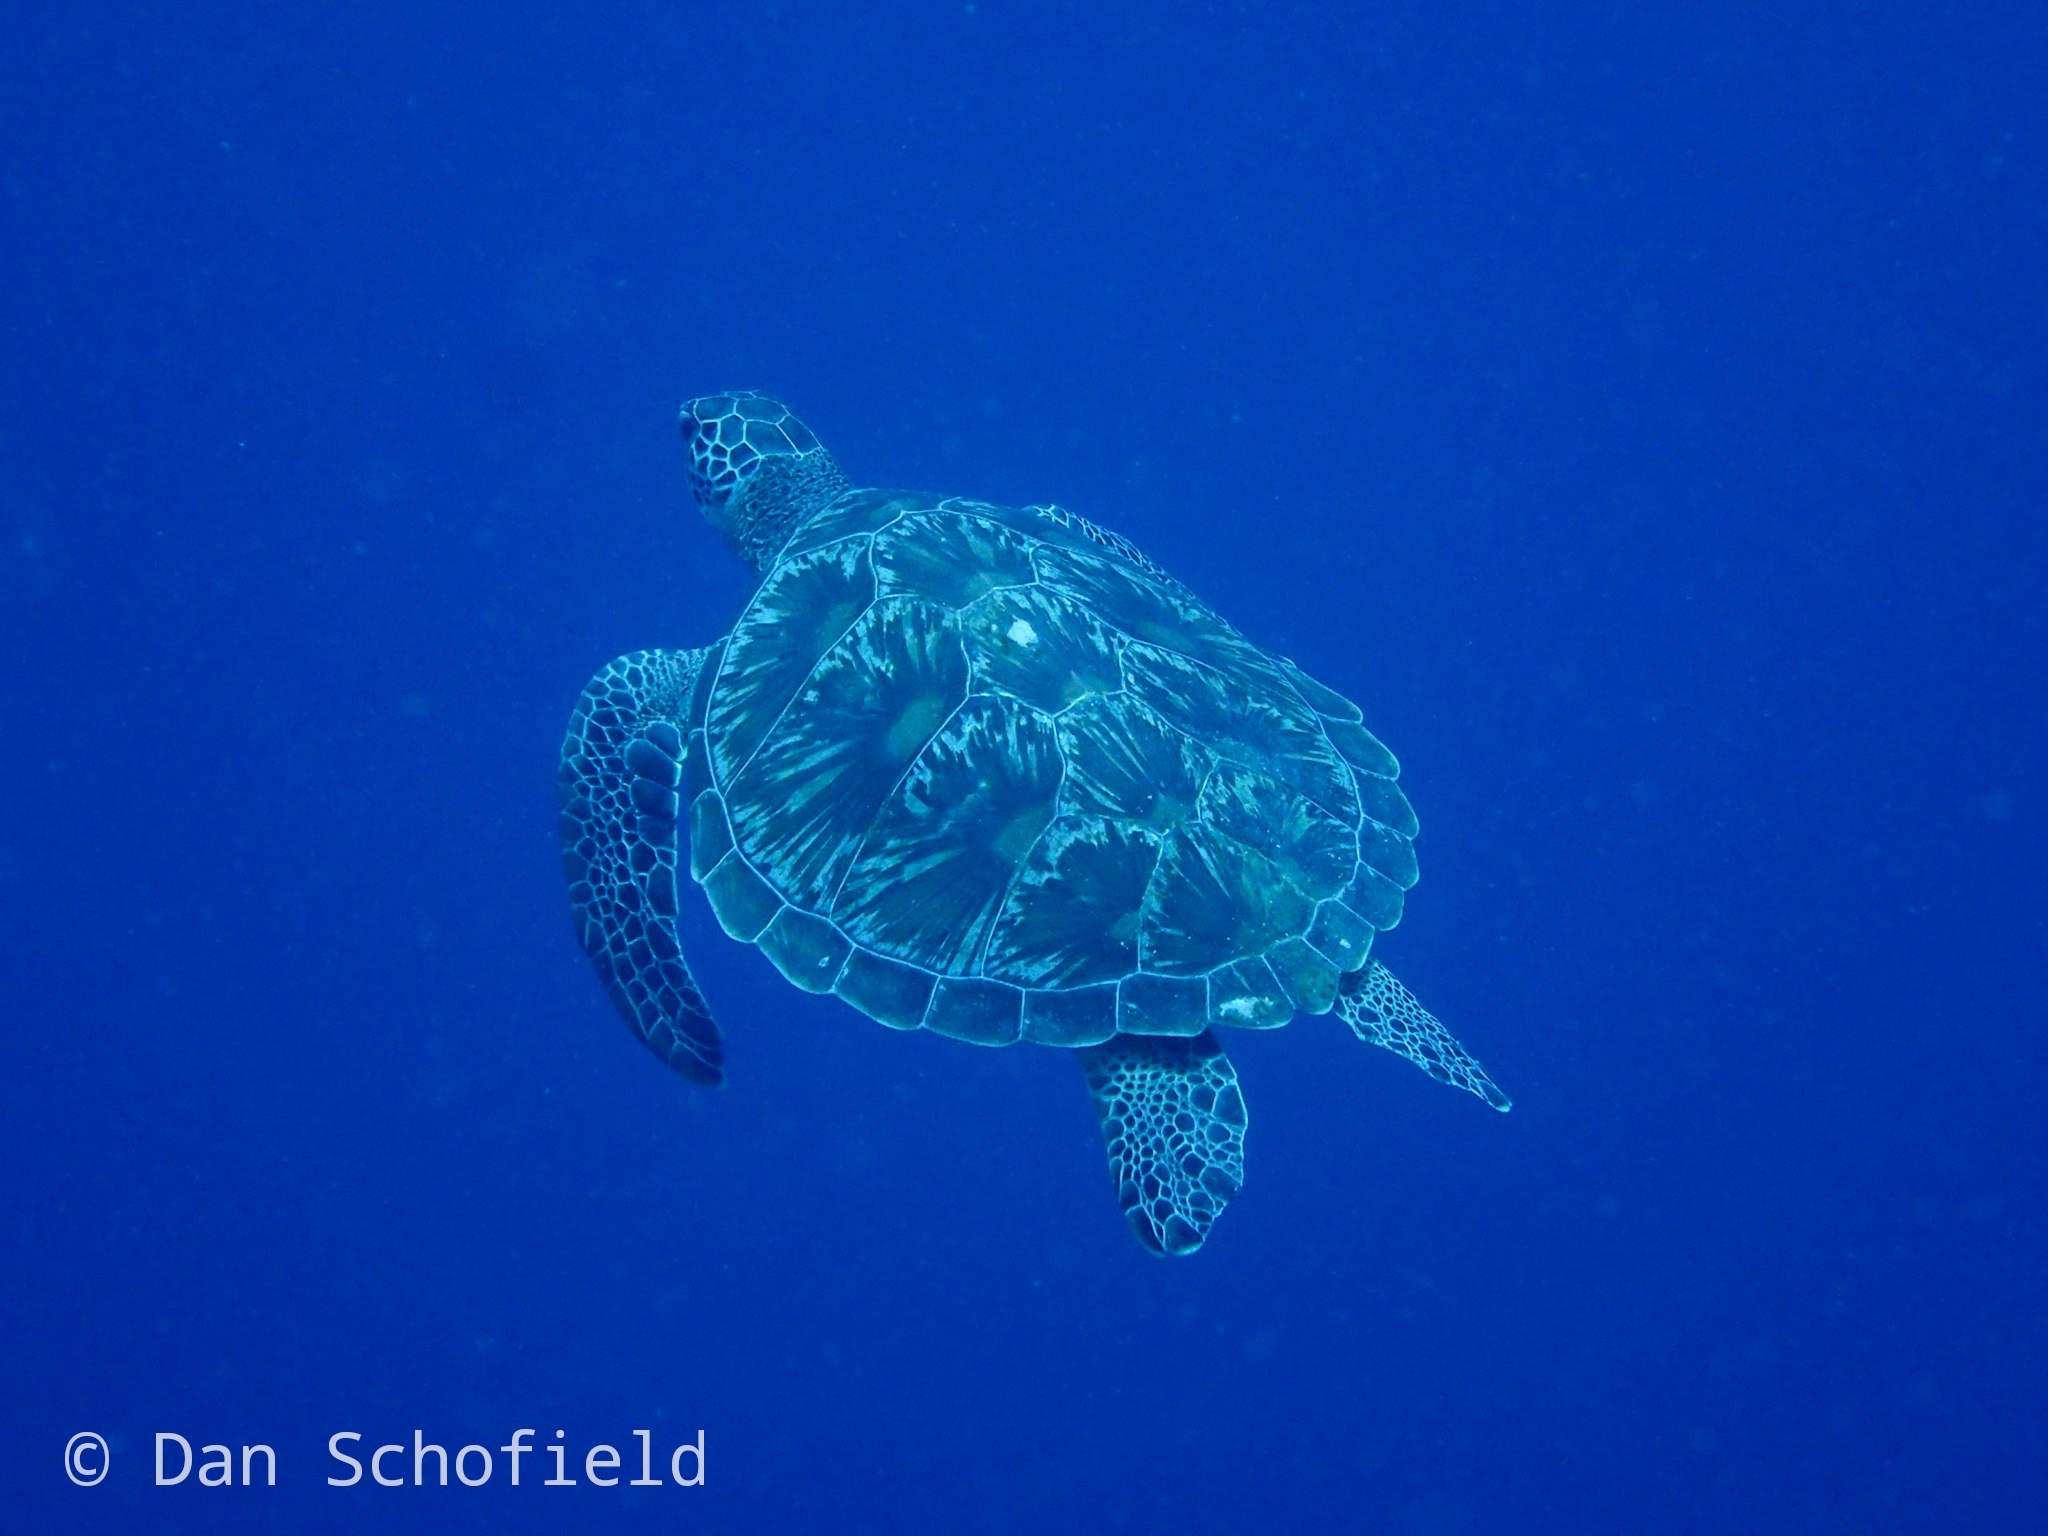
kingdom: Animalia
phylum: Chordata
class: Testudines
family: Cheloniidae
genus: Chelonia
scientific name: Chelonia mydas
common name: Green turtle
